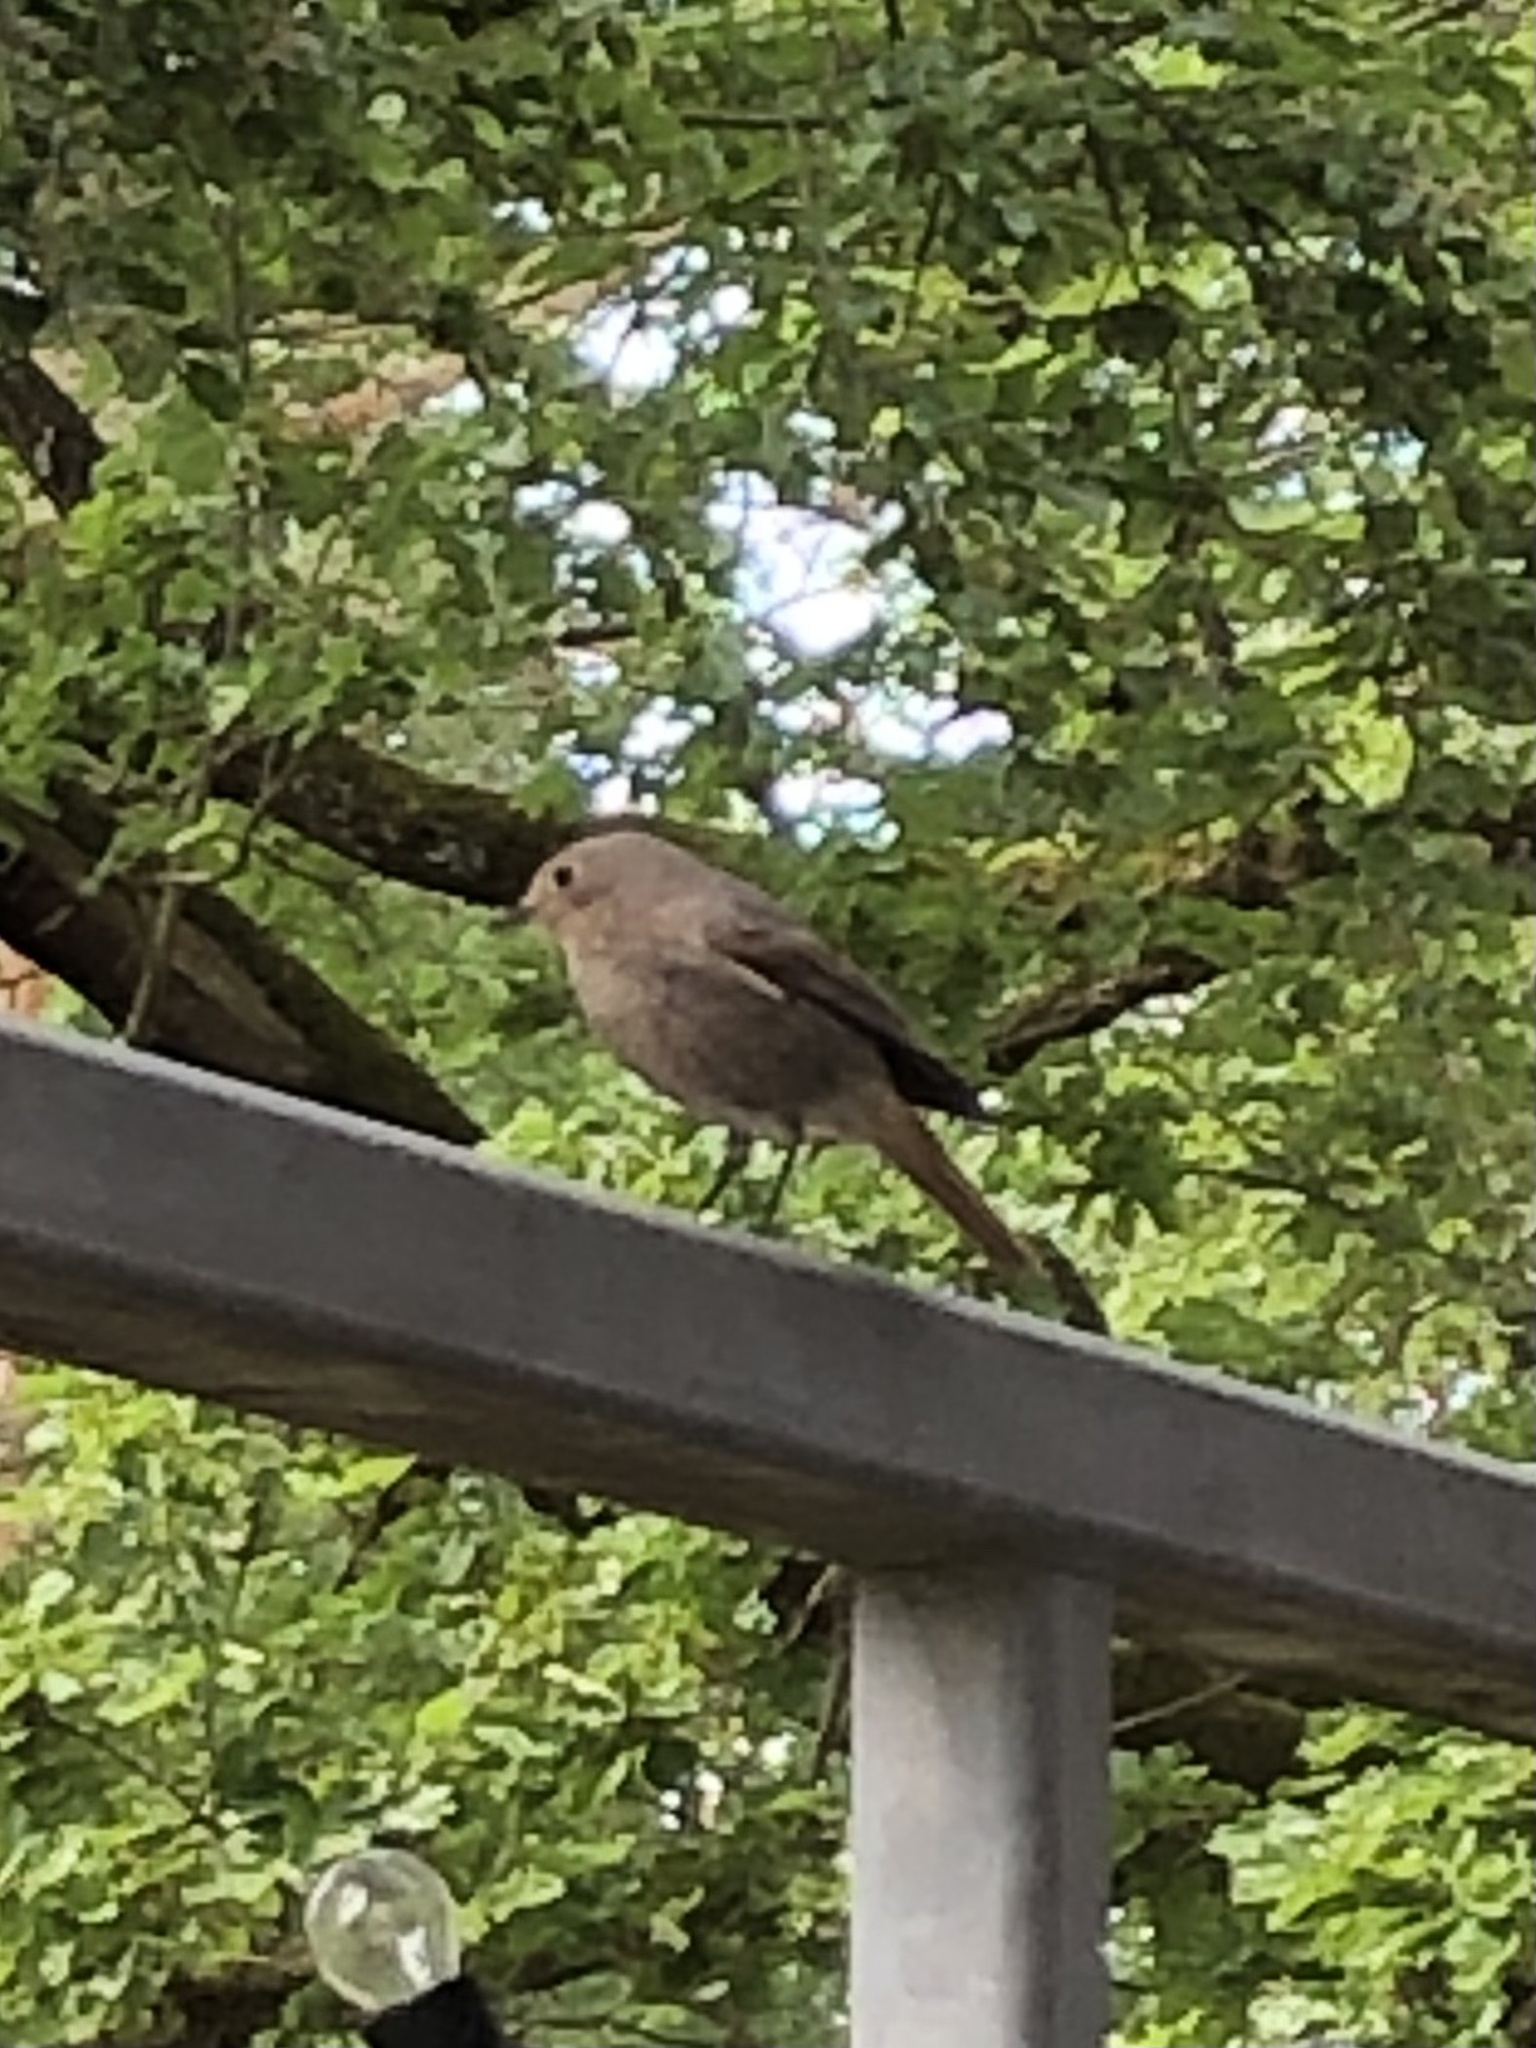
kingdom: Animalia
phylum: Chordata
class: Aves
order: Passeriformes
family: Muscicapidae
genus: Phoenicurus
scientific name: Phoenicurus ochruros
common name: Black redstart
